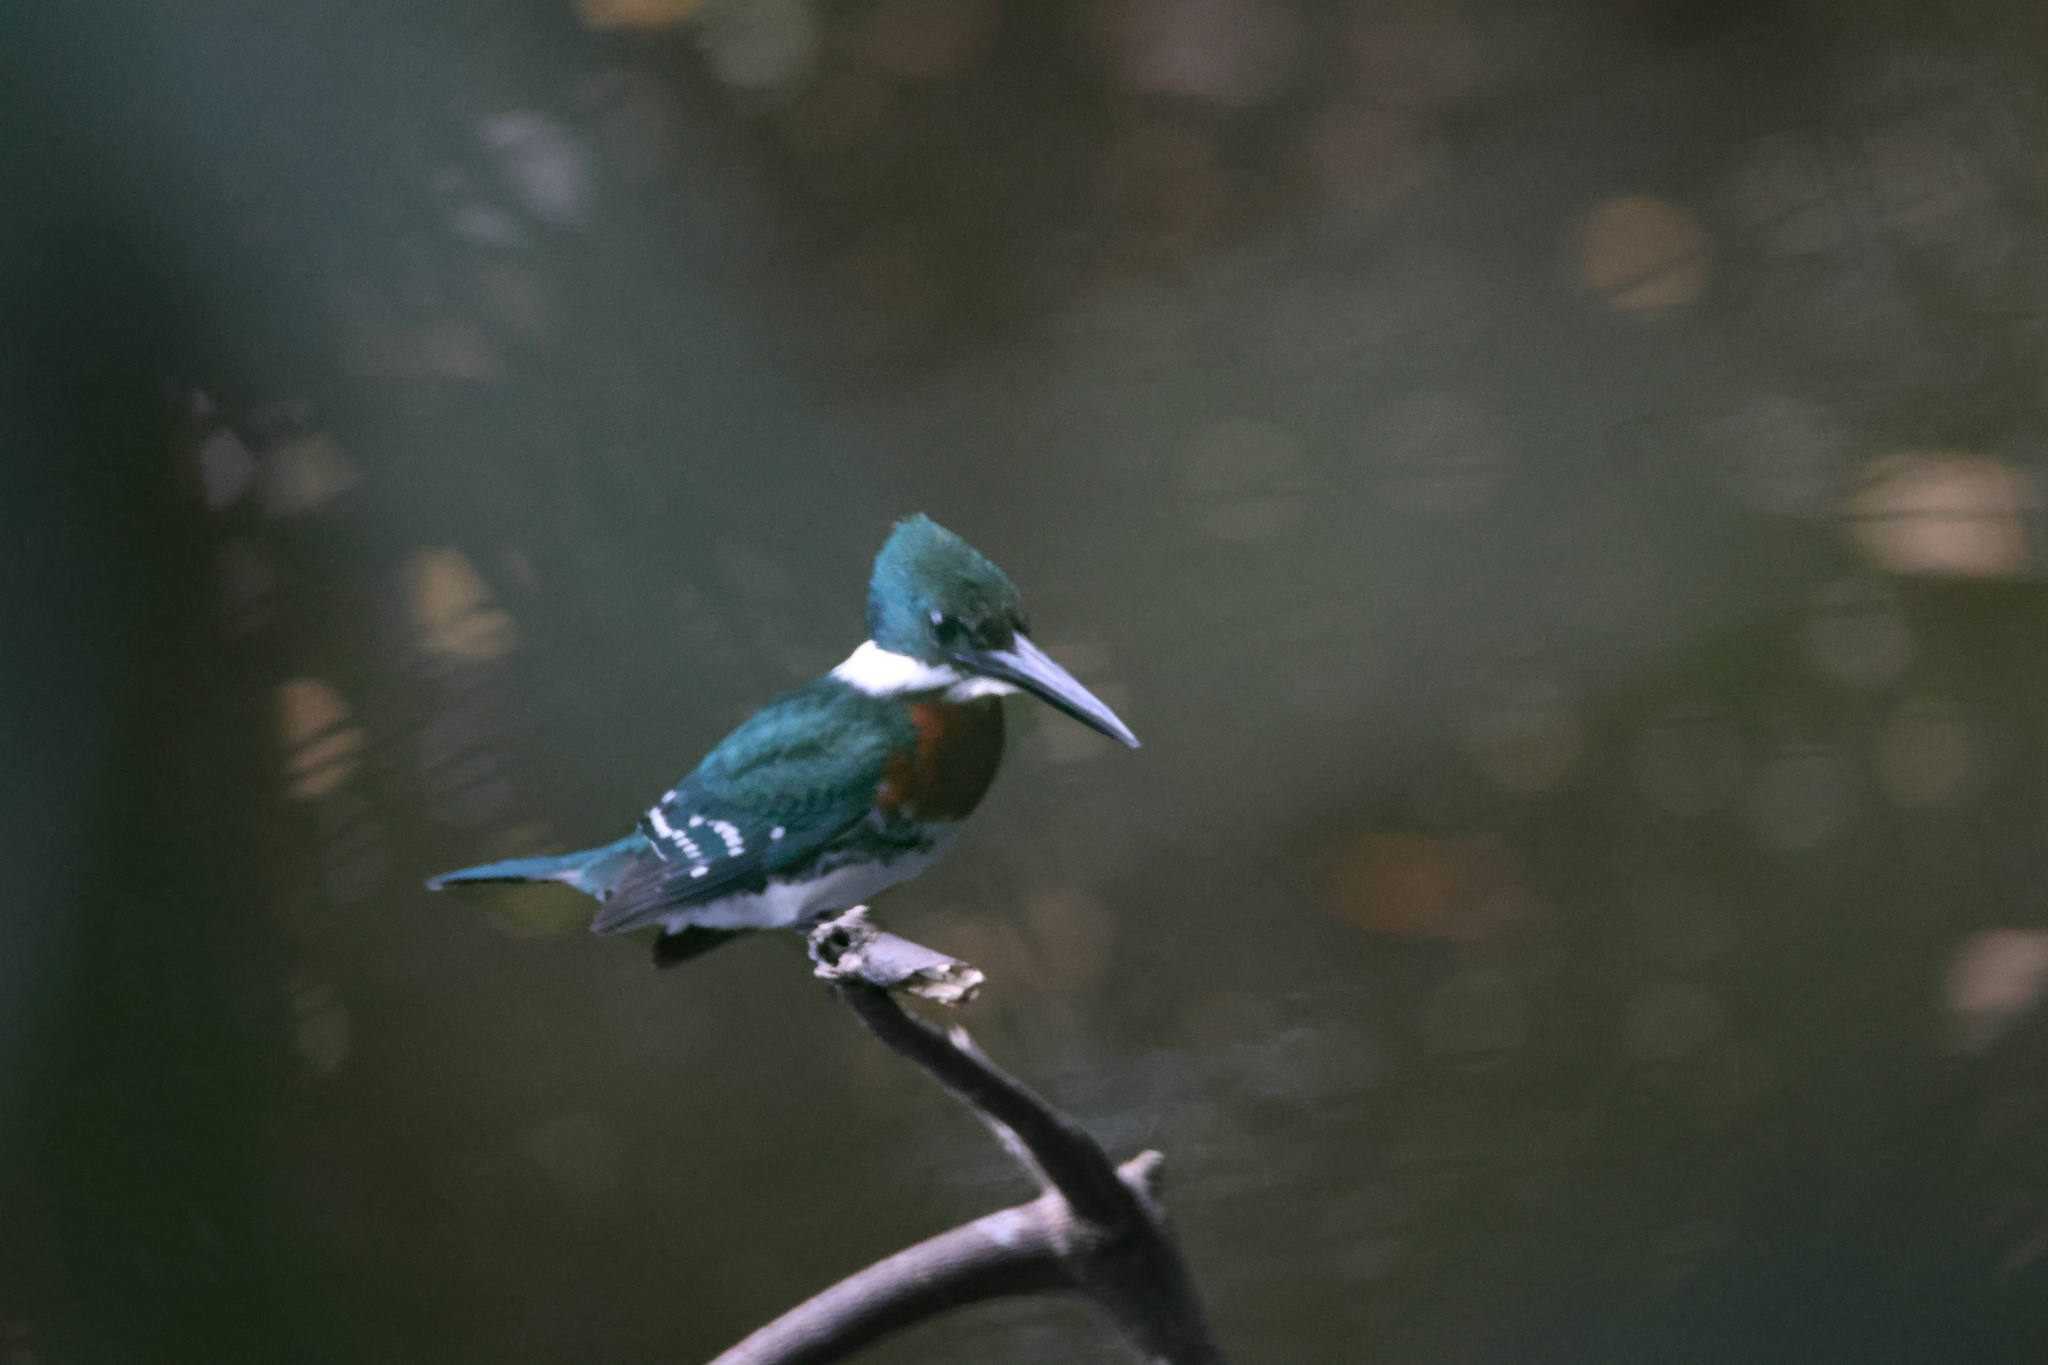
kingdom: Animalia
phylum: Chordata
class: Aves
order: Coraciiformes
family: Alcedinidae
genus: Chloroceryle
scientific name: Chloroceryle americana
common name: Green kingfisher
